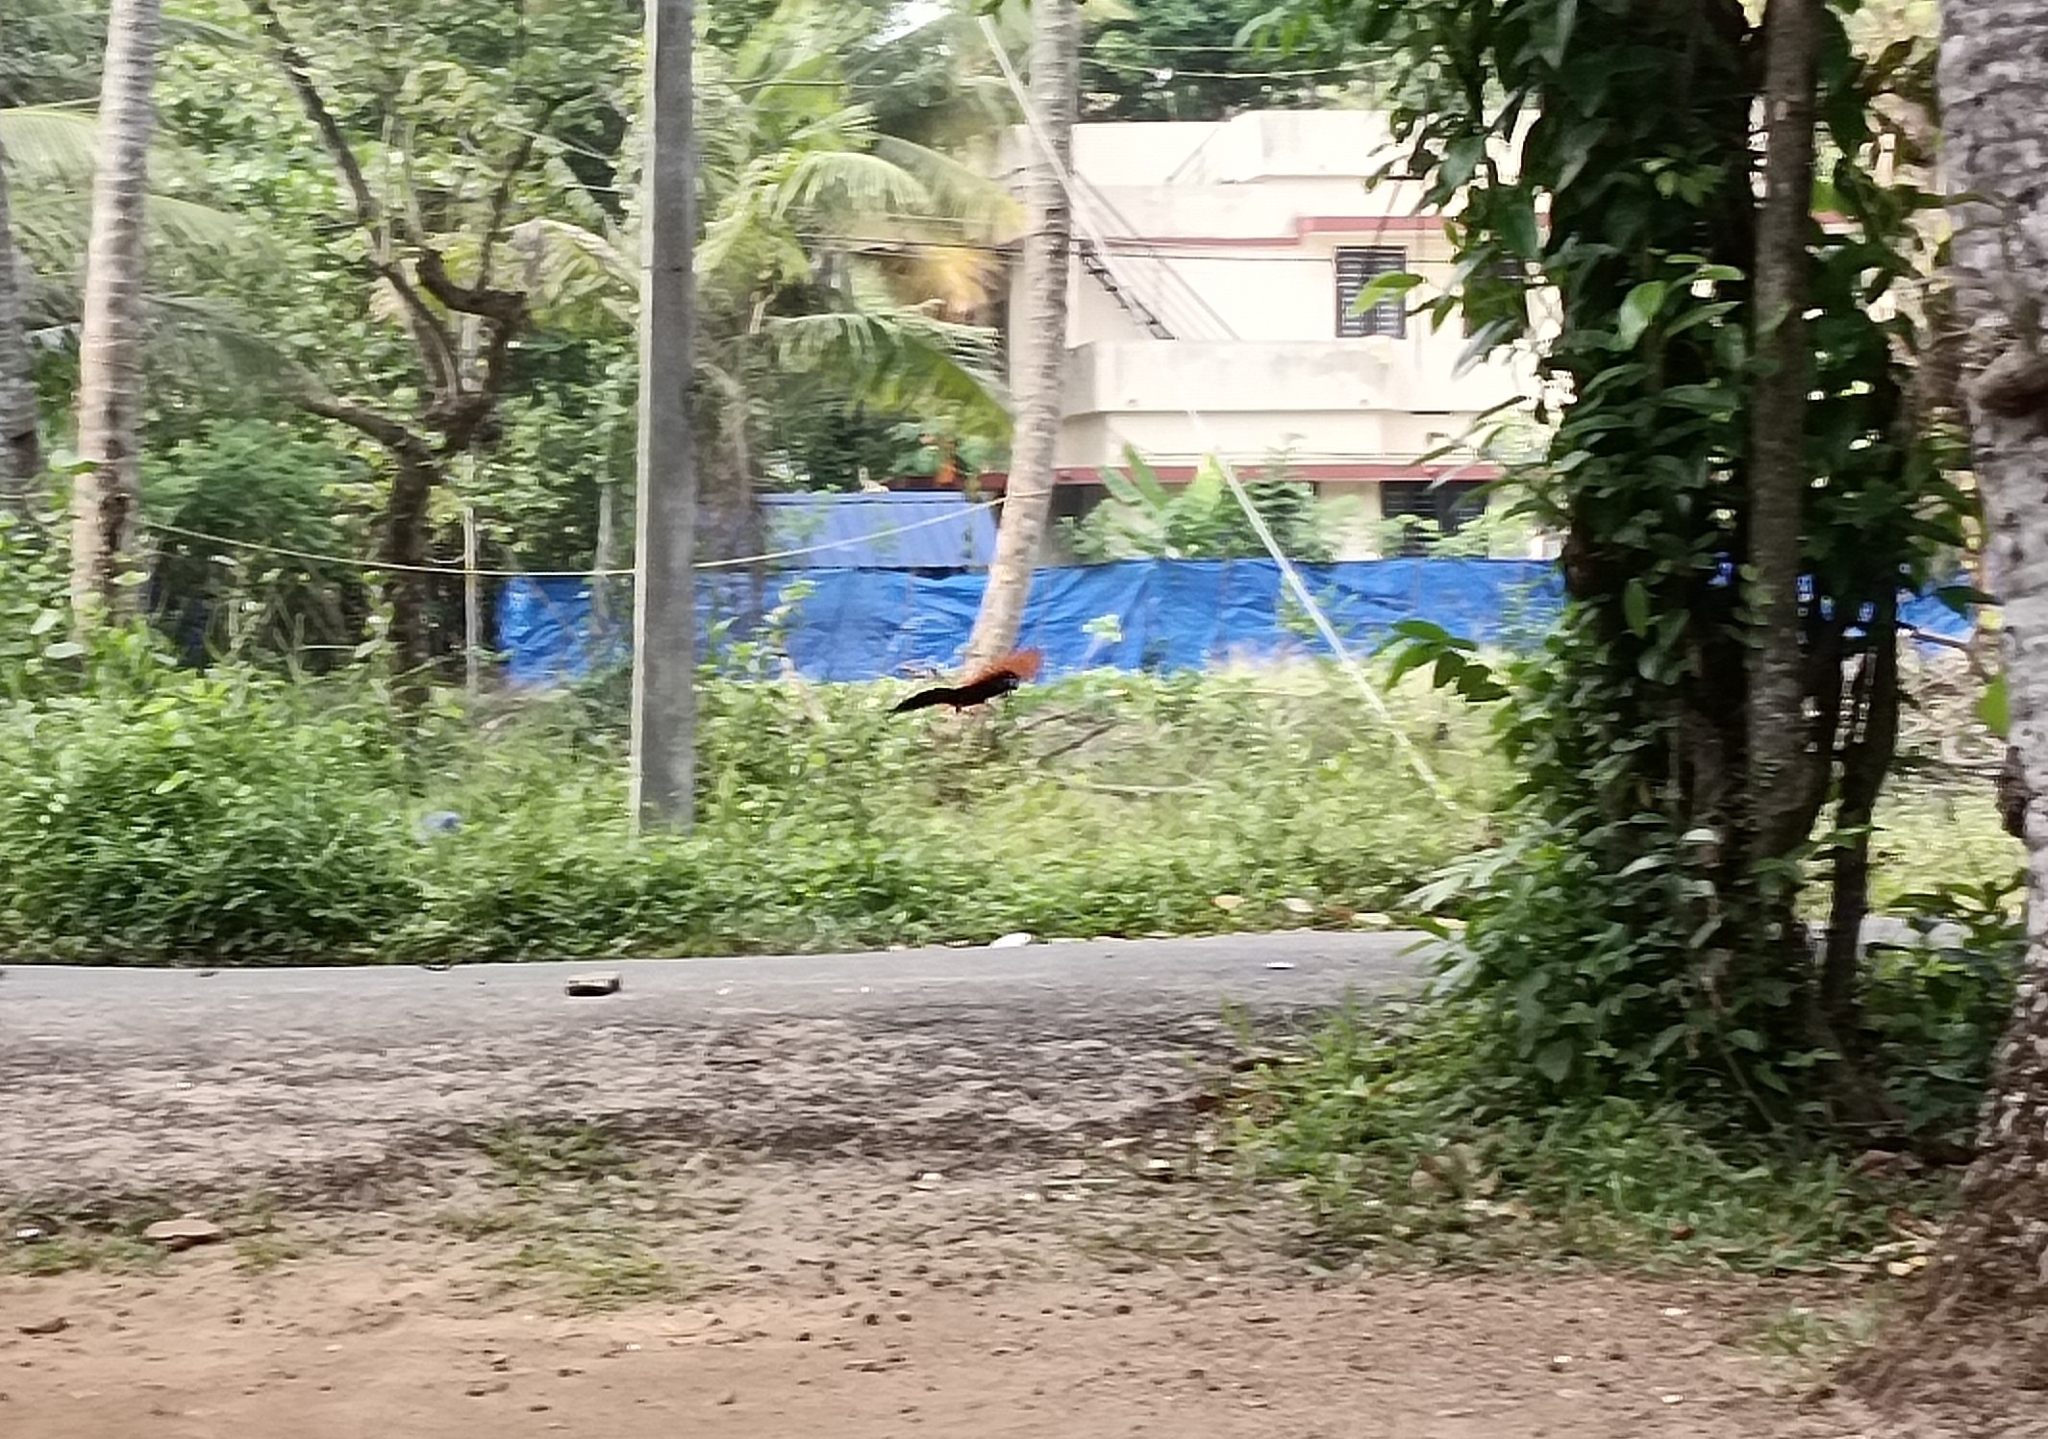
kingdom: Animalia
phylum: Chordata
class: Aves
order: Cuculiformes
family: Cuculidae
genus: Centropus
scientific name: Centropus sinensis
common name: Greater coucal
